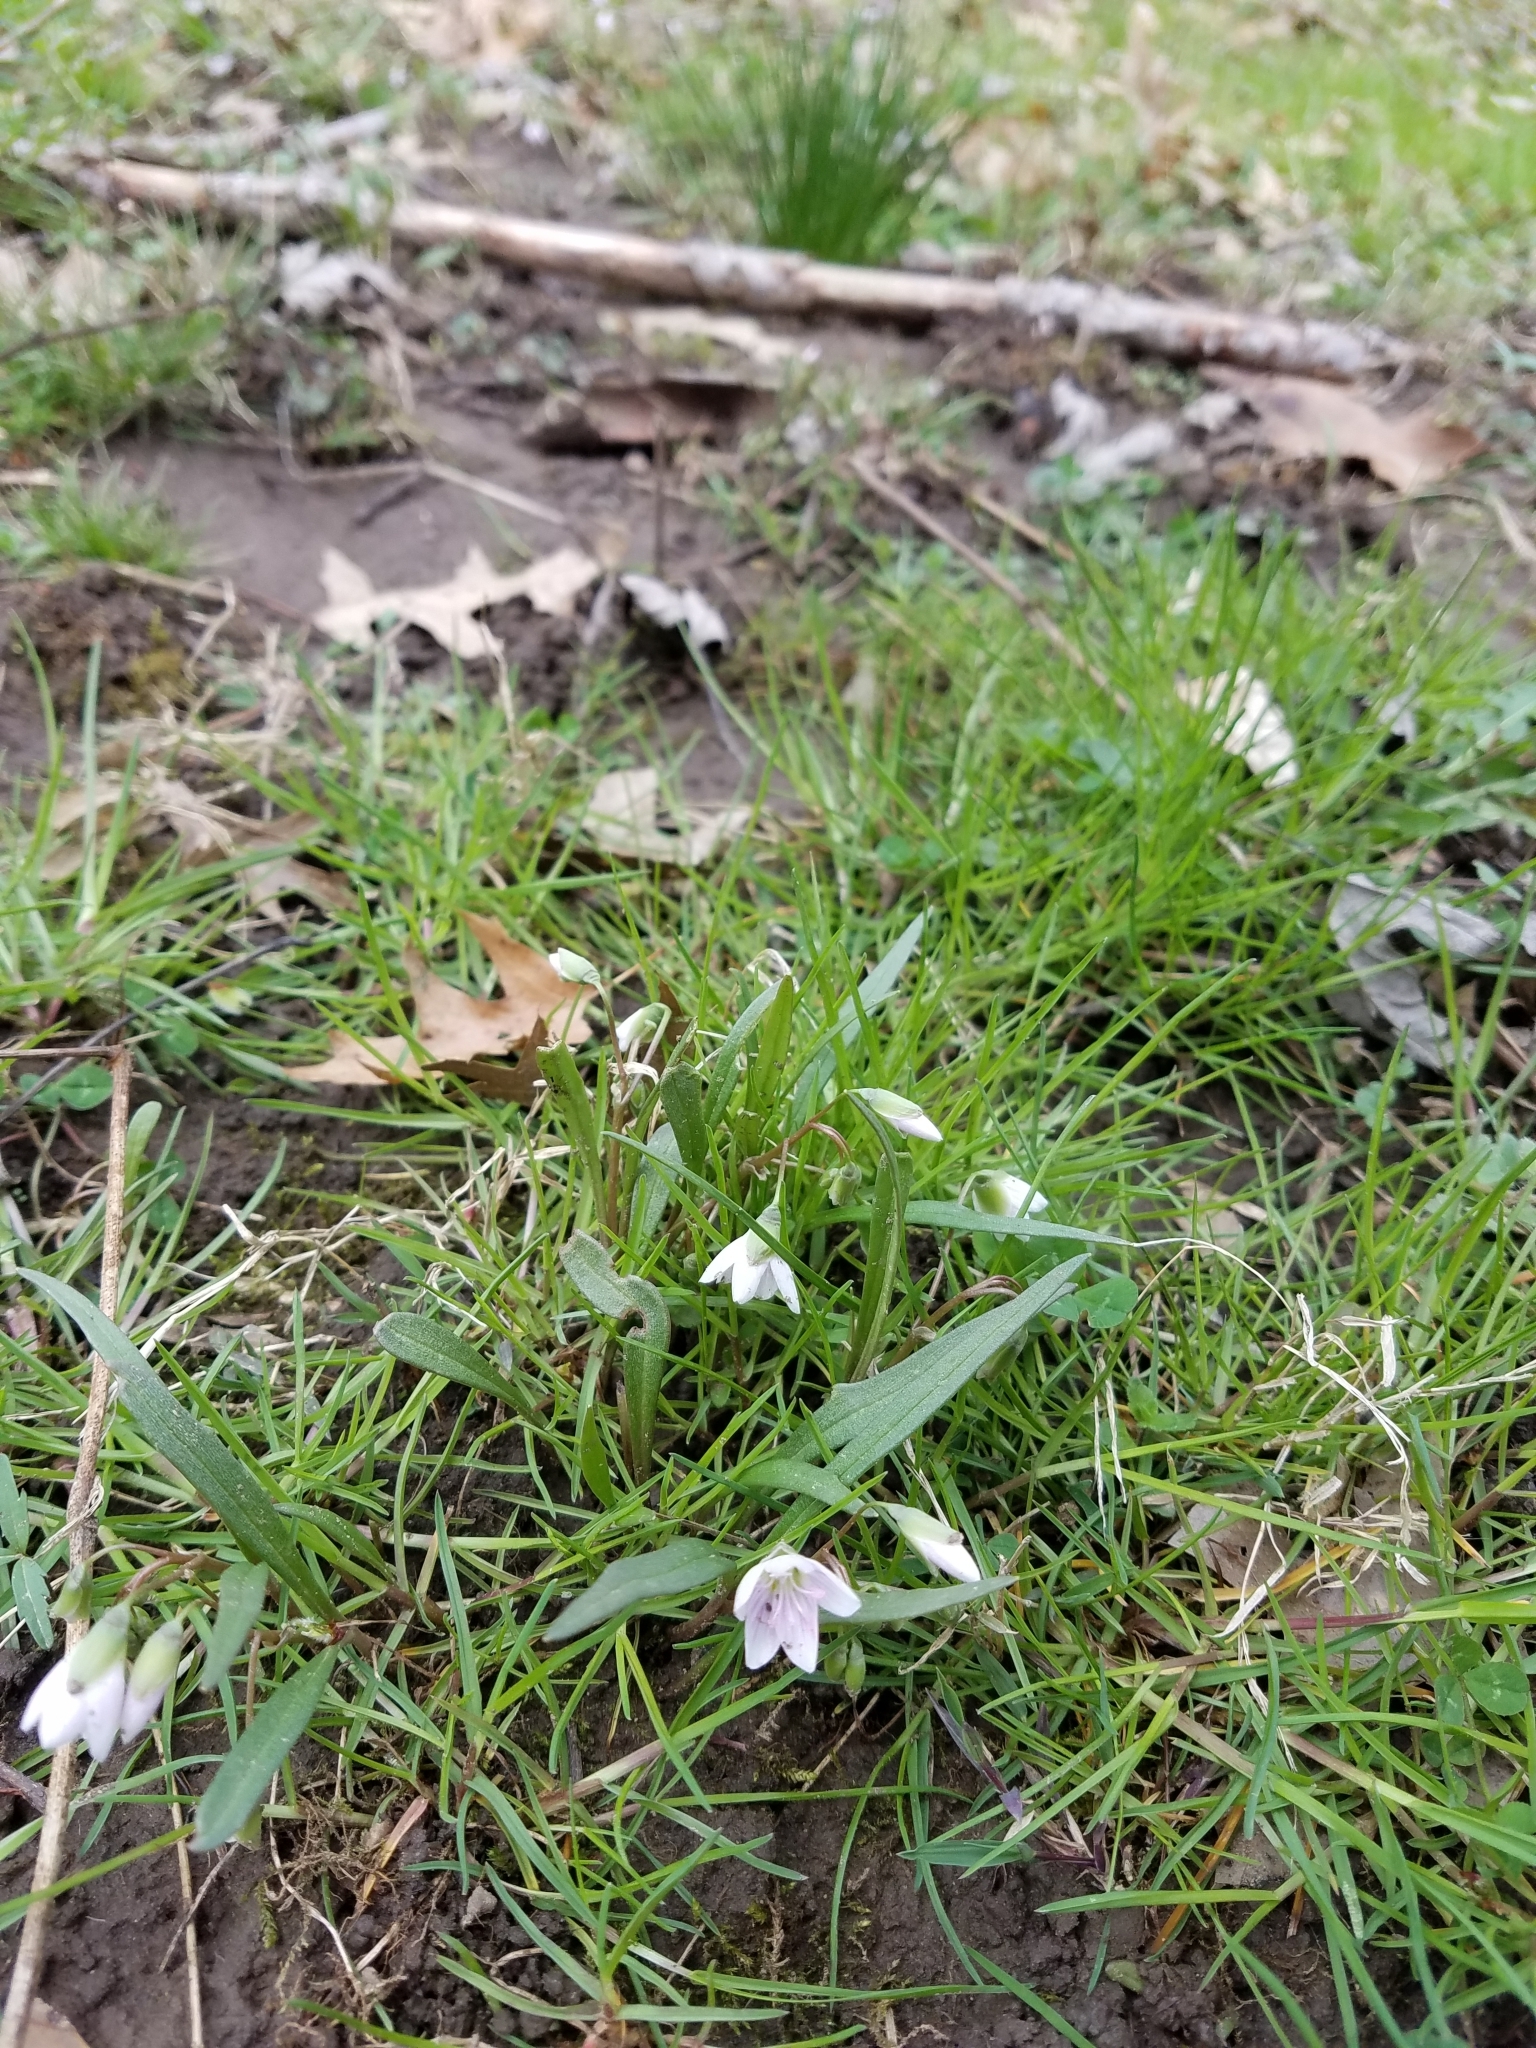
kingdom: Plantae
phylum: Tracheophyta
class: Magnoliopsida
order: Caryophyllales
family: Montiaceae
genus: Claytonia
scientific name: Claytonia virginica
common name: Virginia springbeauty
